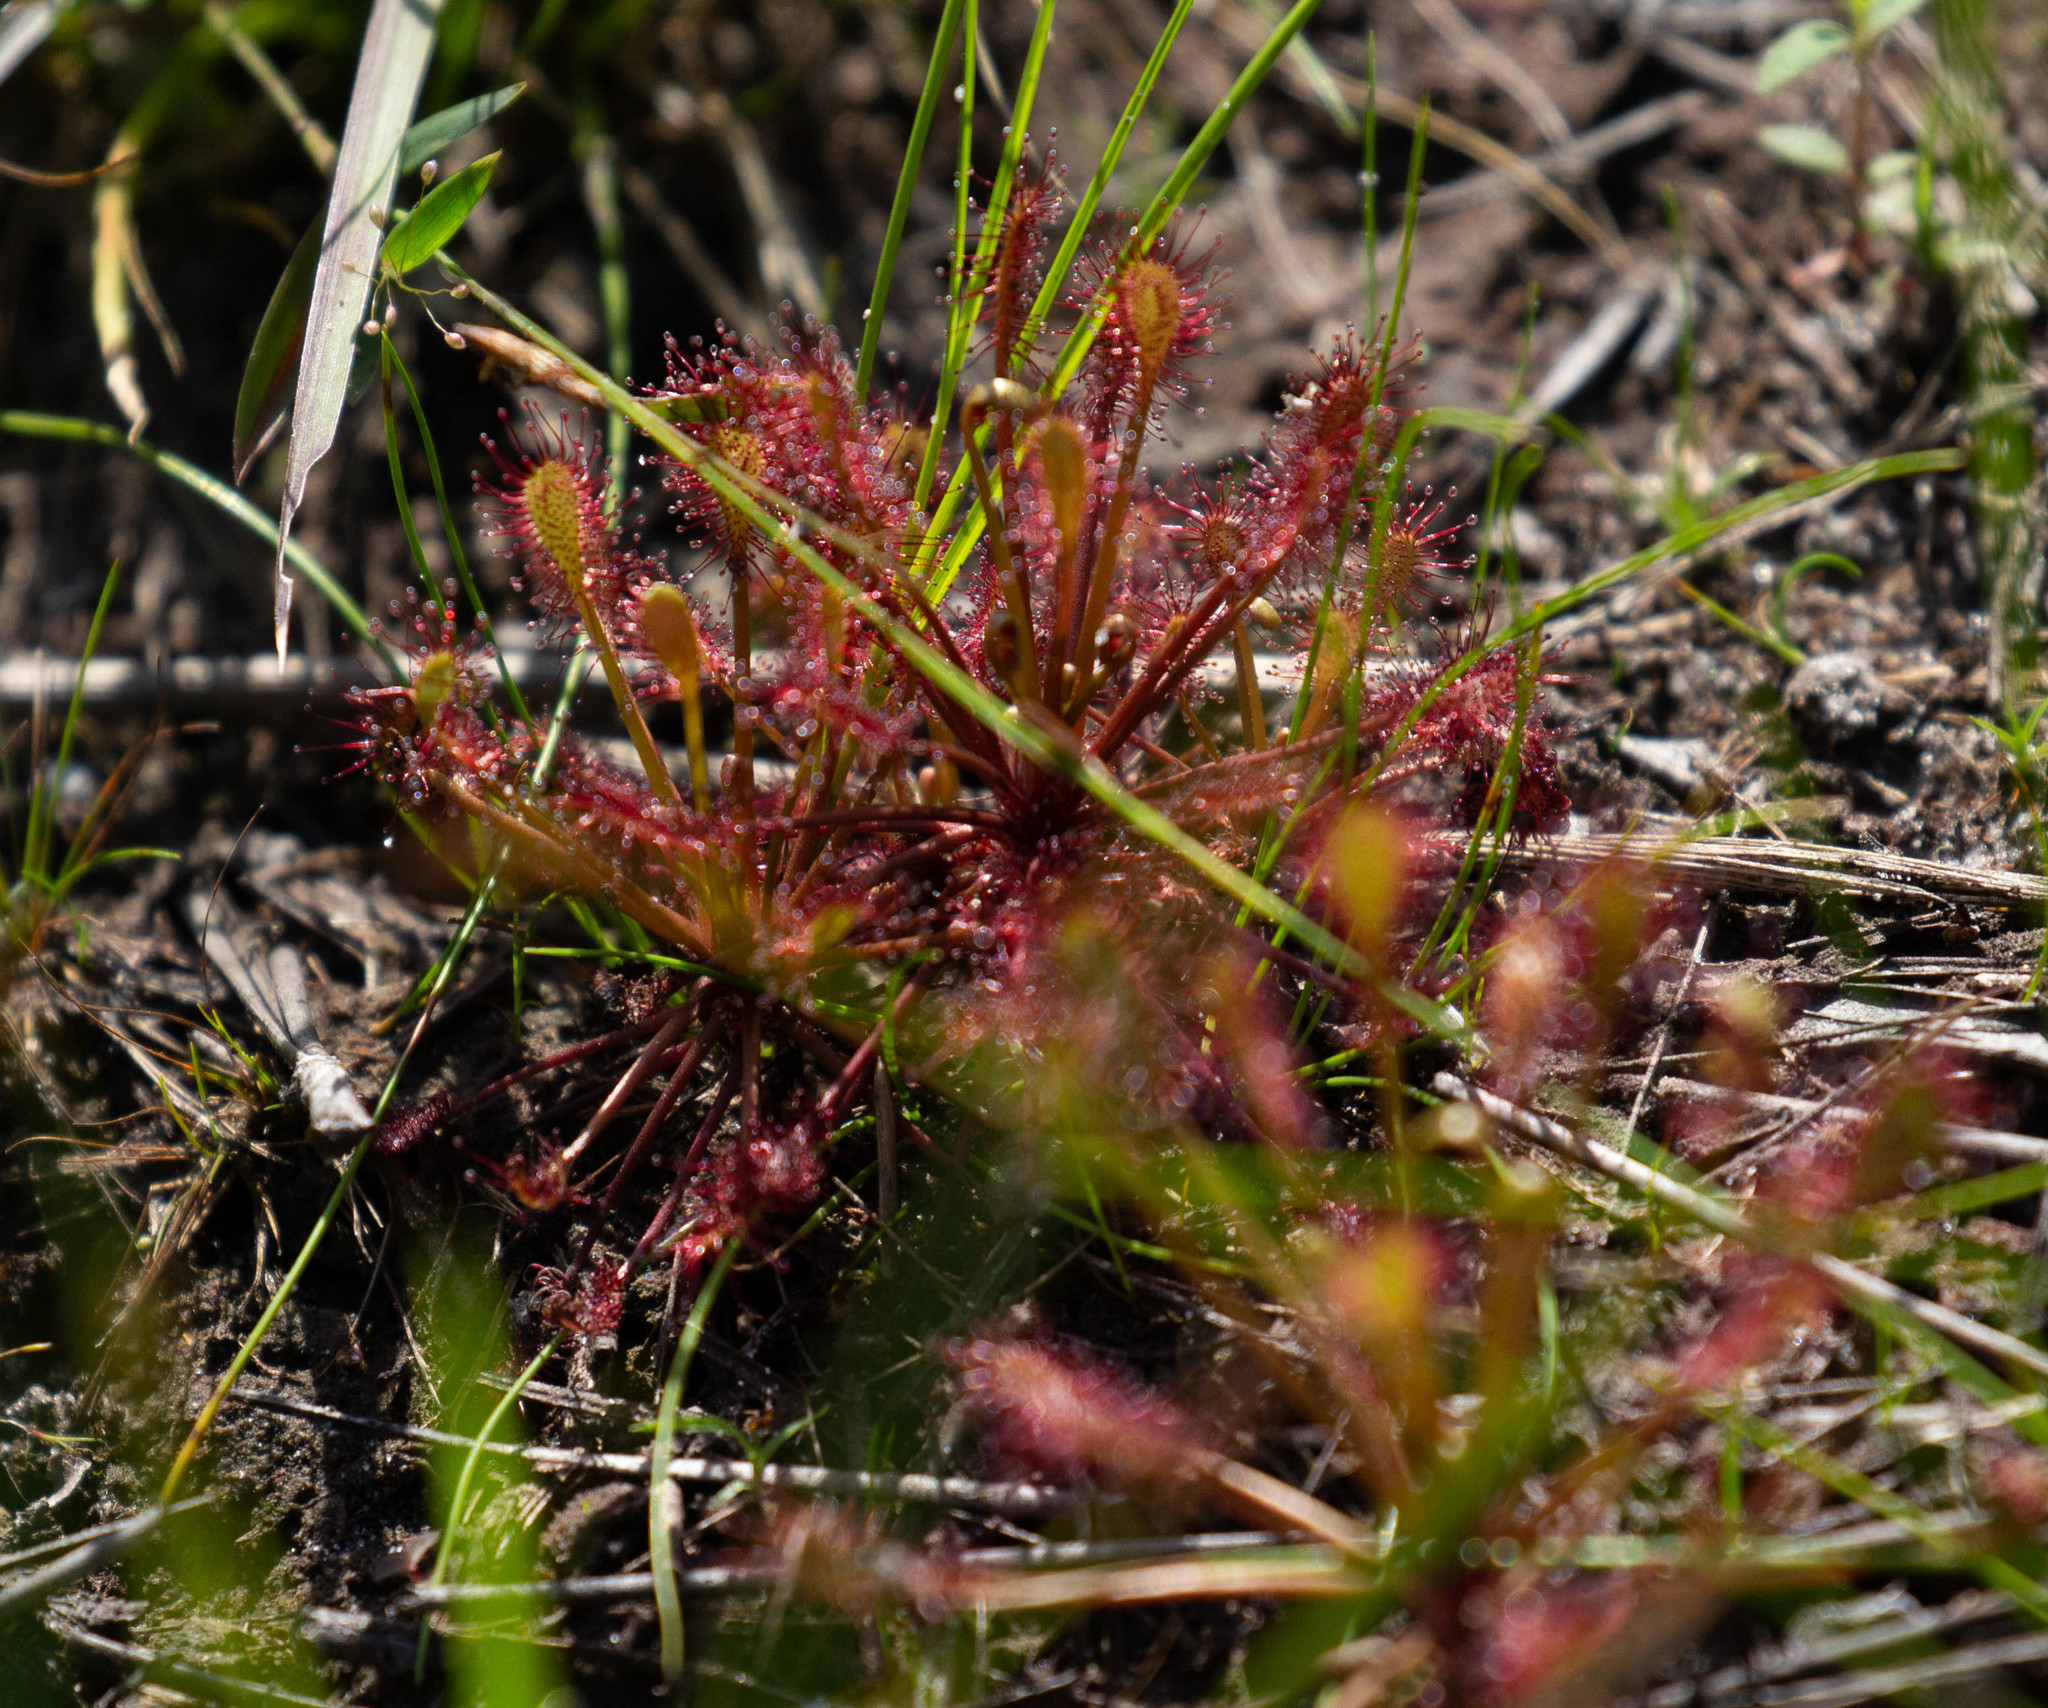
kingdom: Plantae
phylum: Tracheophyta
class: Magnoliopsida
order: Caryophyllales
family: Droseraceae
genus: Drosera
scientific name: Drosera intermedia
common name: Oblong-leaved sundew
